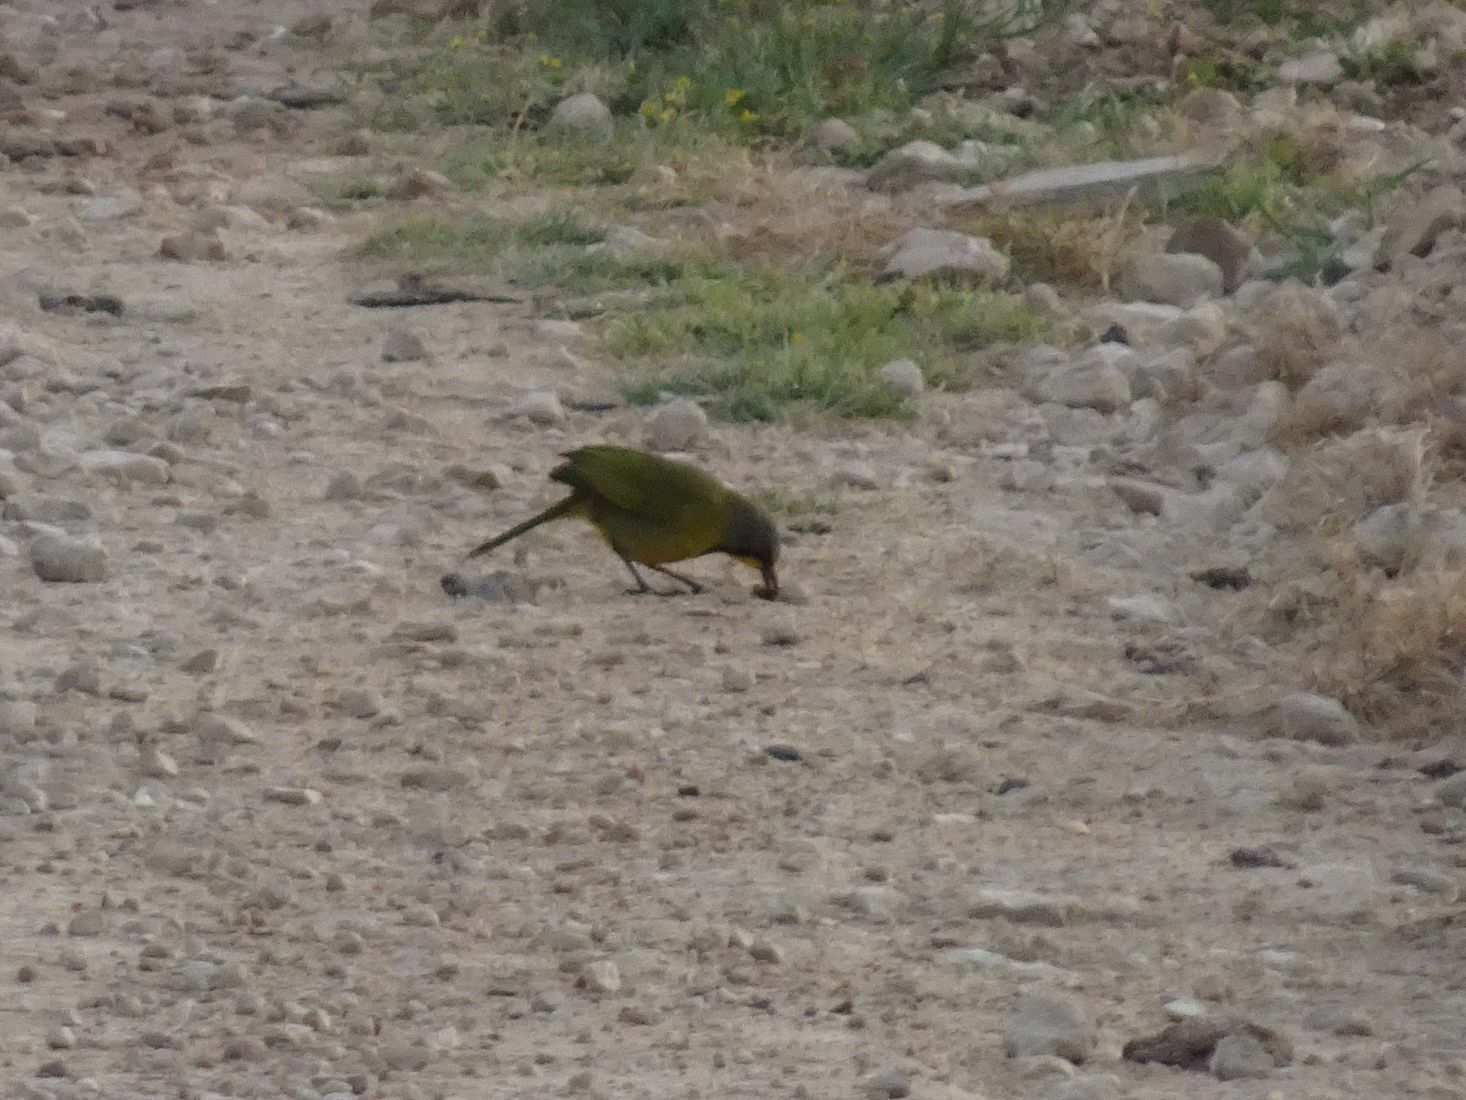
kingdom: Animalia
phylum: Chordata
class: Aves
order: Passeriformes
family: Malaconotidae
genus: Telophorus
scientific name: Telophorus zeylonus
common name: Bokmakierie
